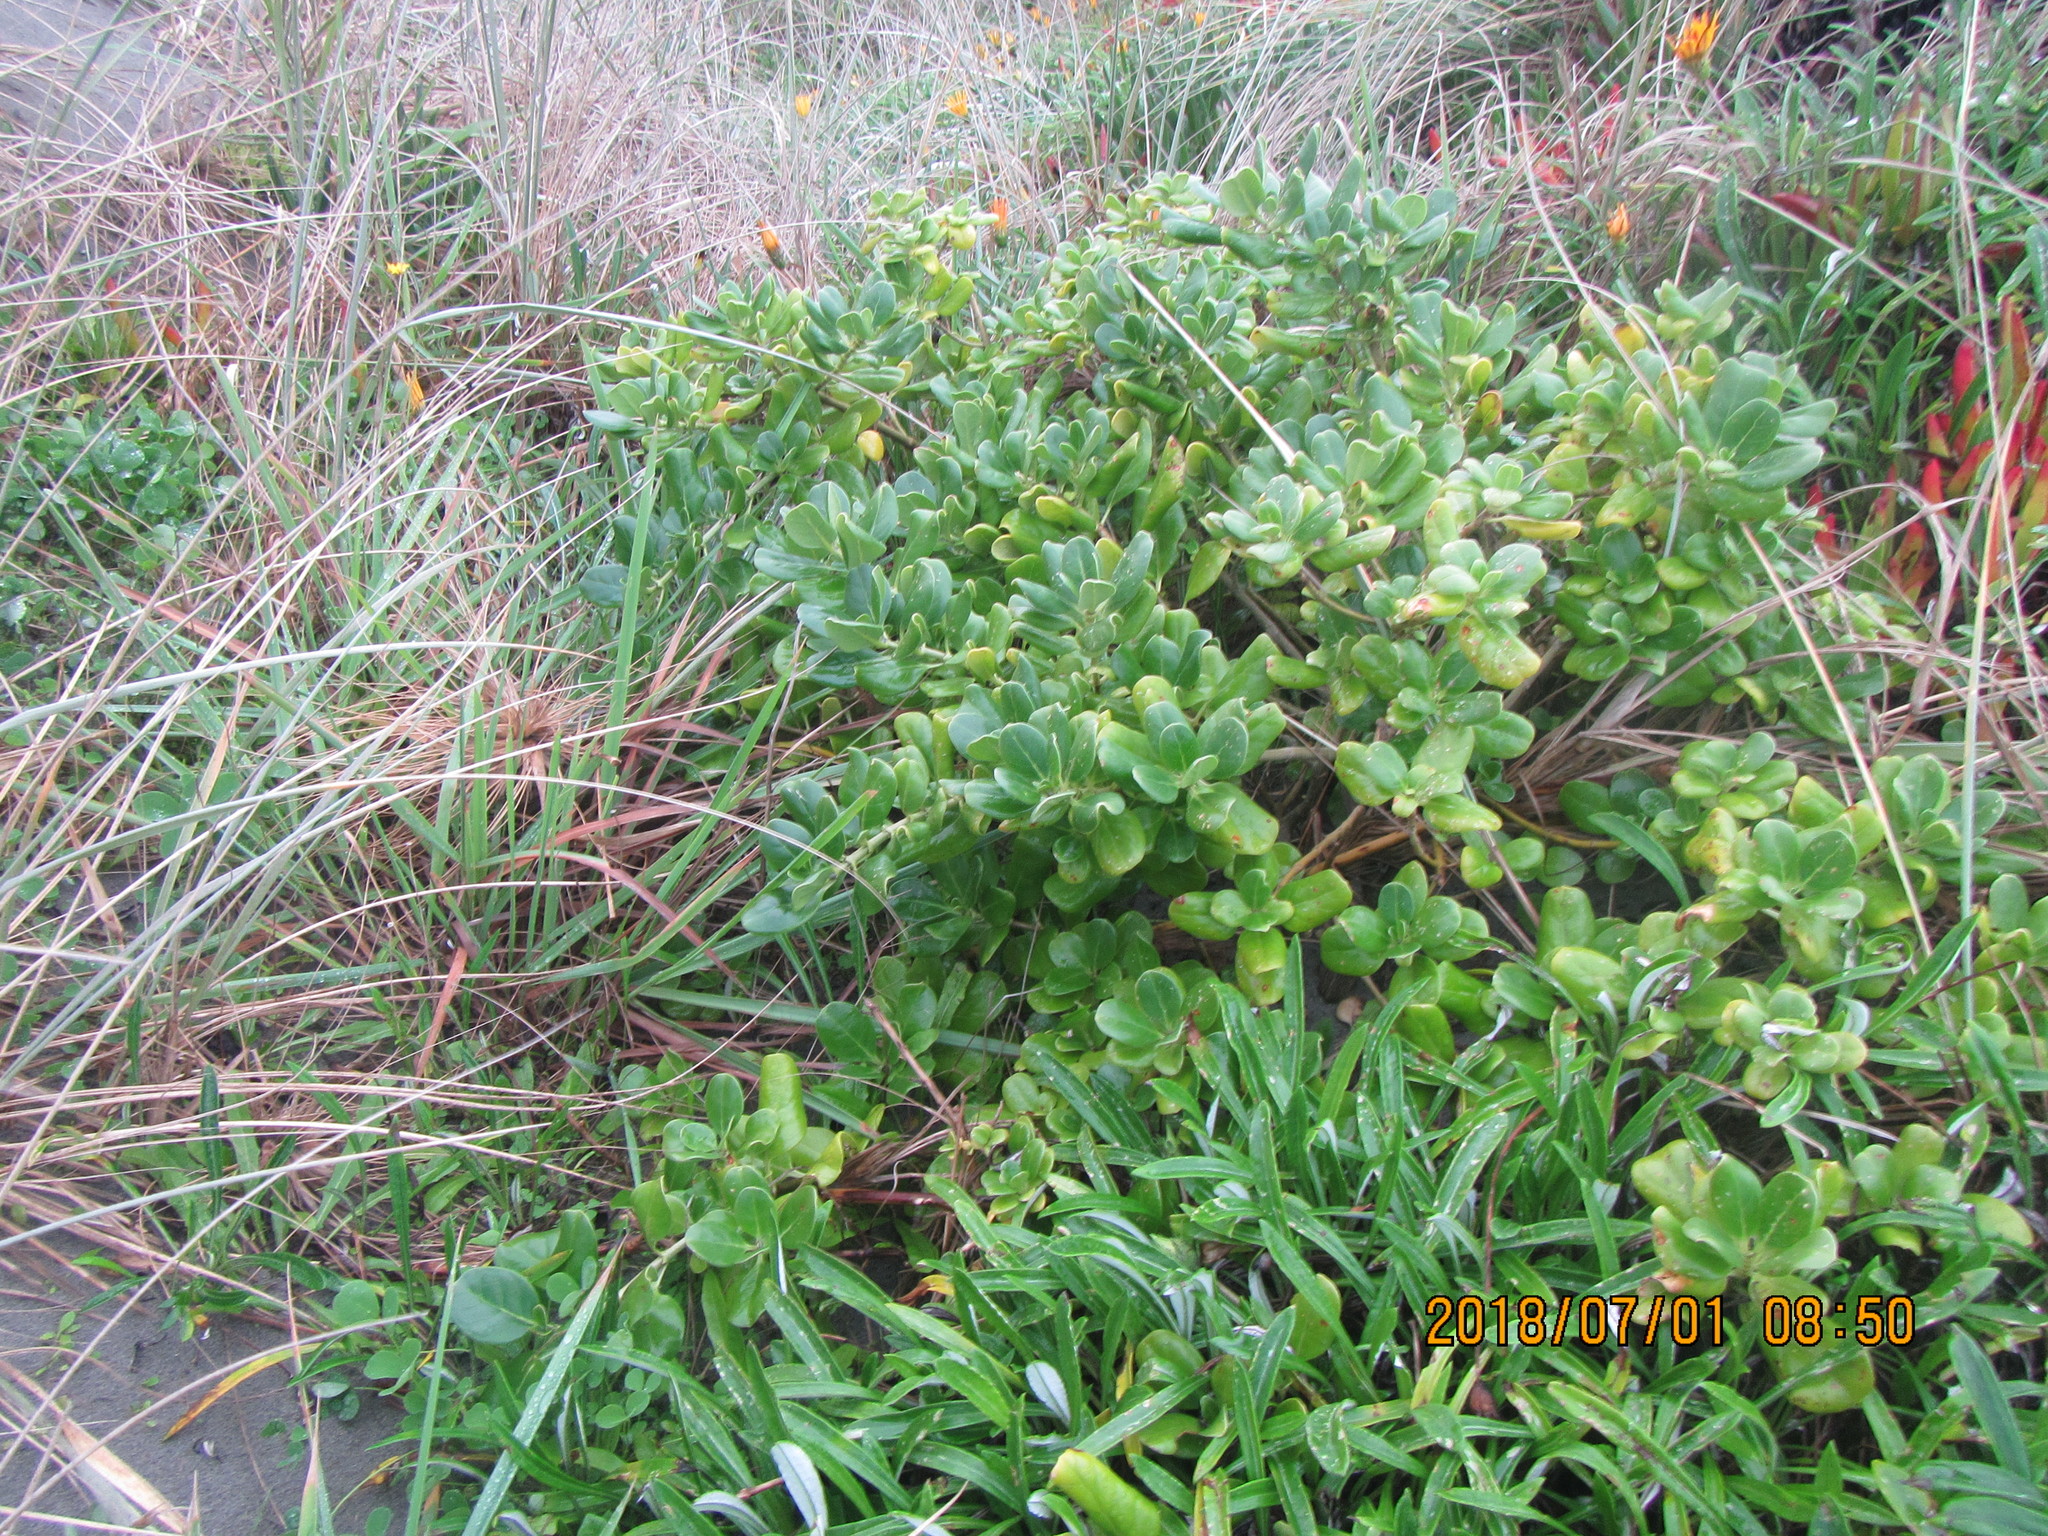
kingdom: Plantae
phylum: Tracheophyta
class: Magnoliopsida
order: Gentianales
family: Rubiaceae
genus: Coprosma
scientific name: Coprosma repens
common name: Tree bedstraw
